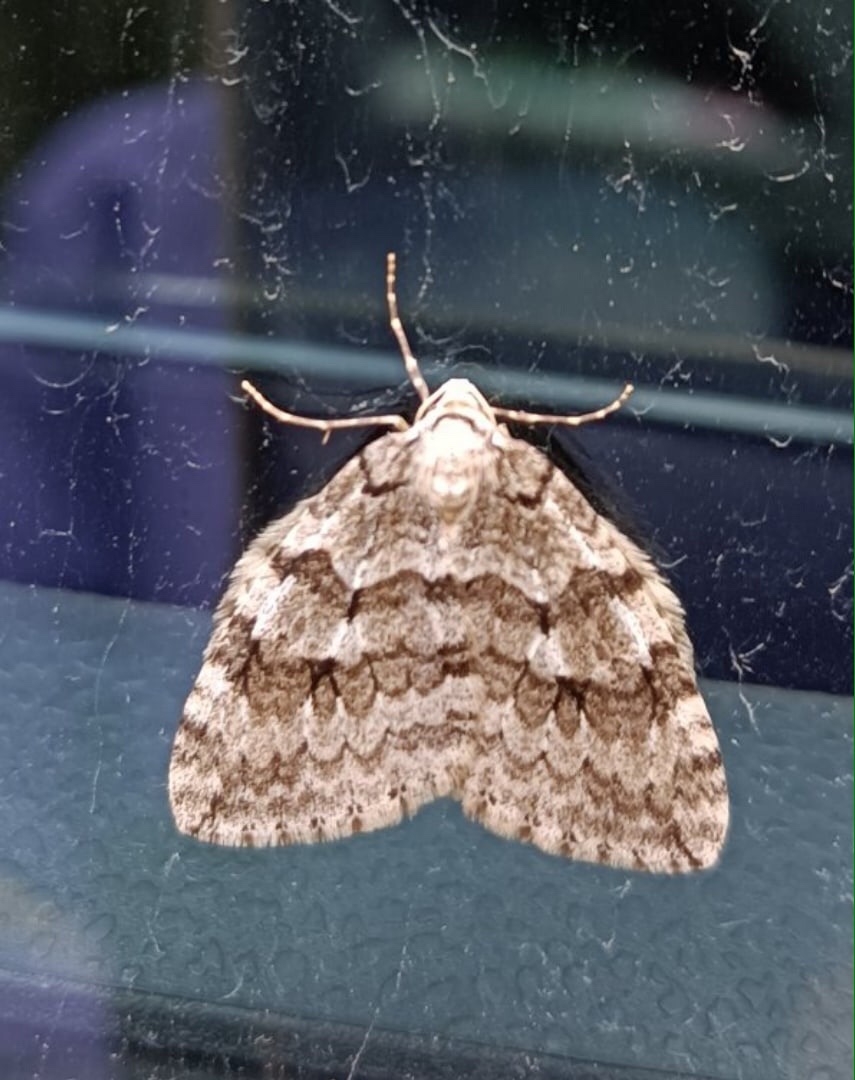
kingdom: Animalia
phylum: Arthropoda
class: Insecta
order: Lepidoptera
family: Geometridae
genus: Epirrita
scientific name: Epirrita autumnata
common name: Autumnal moth
